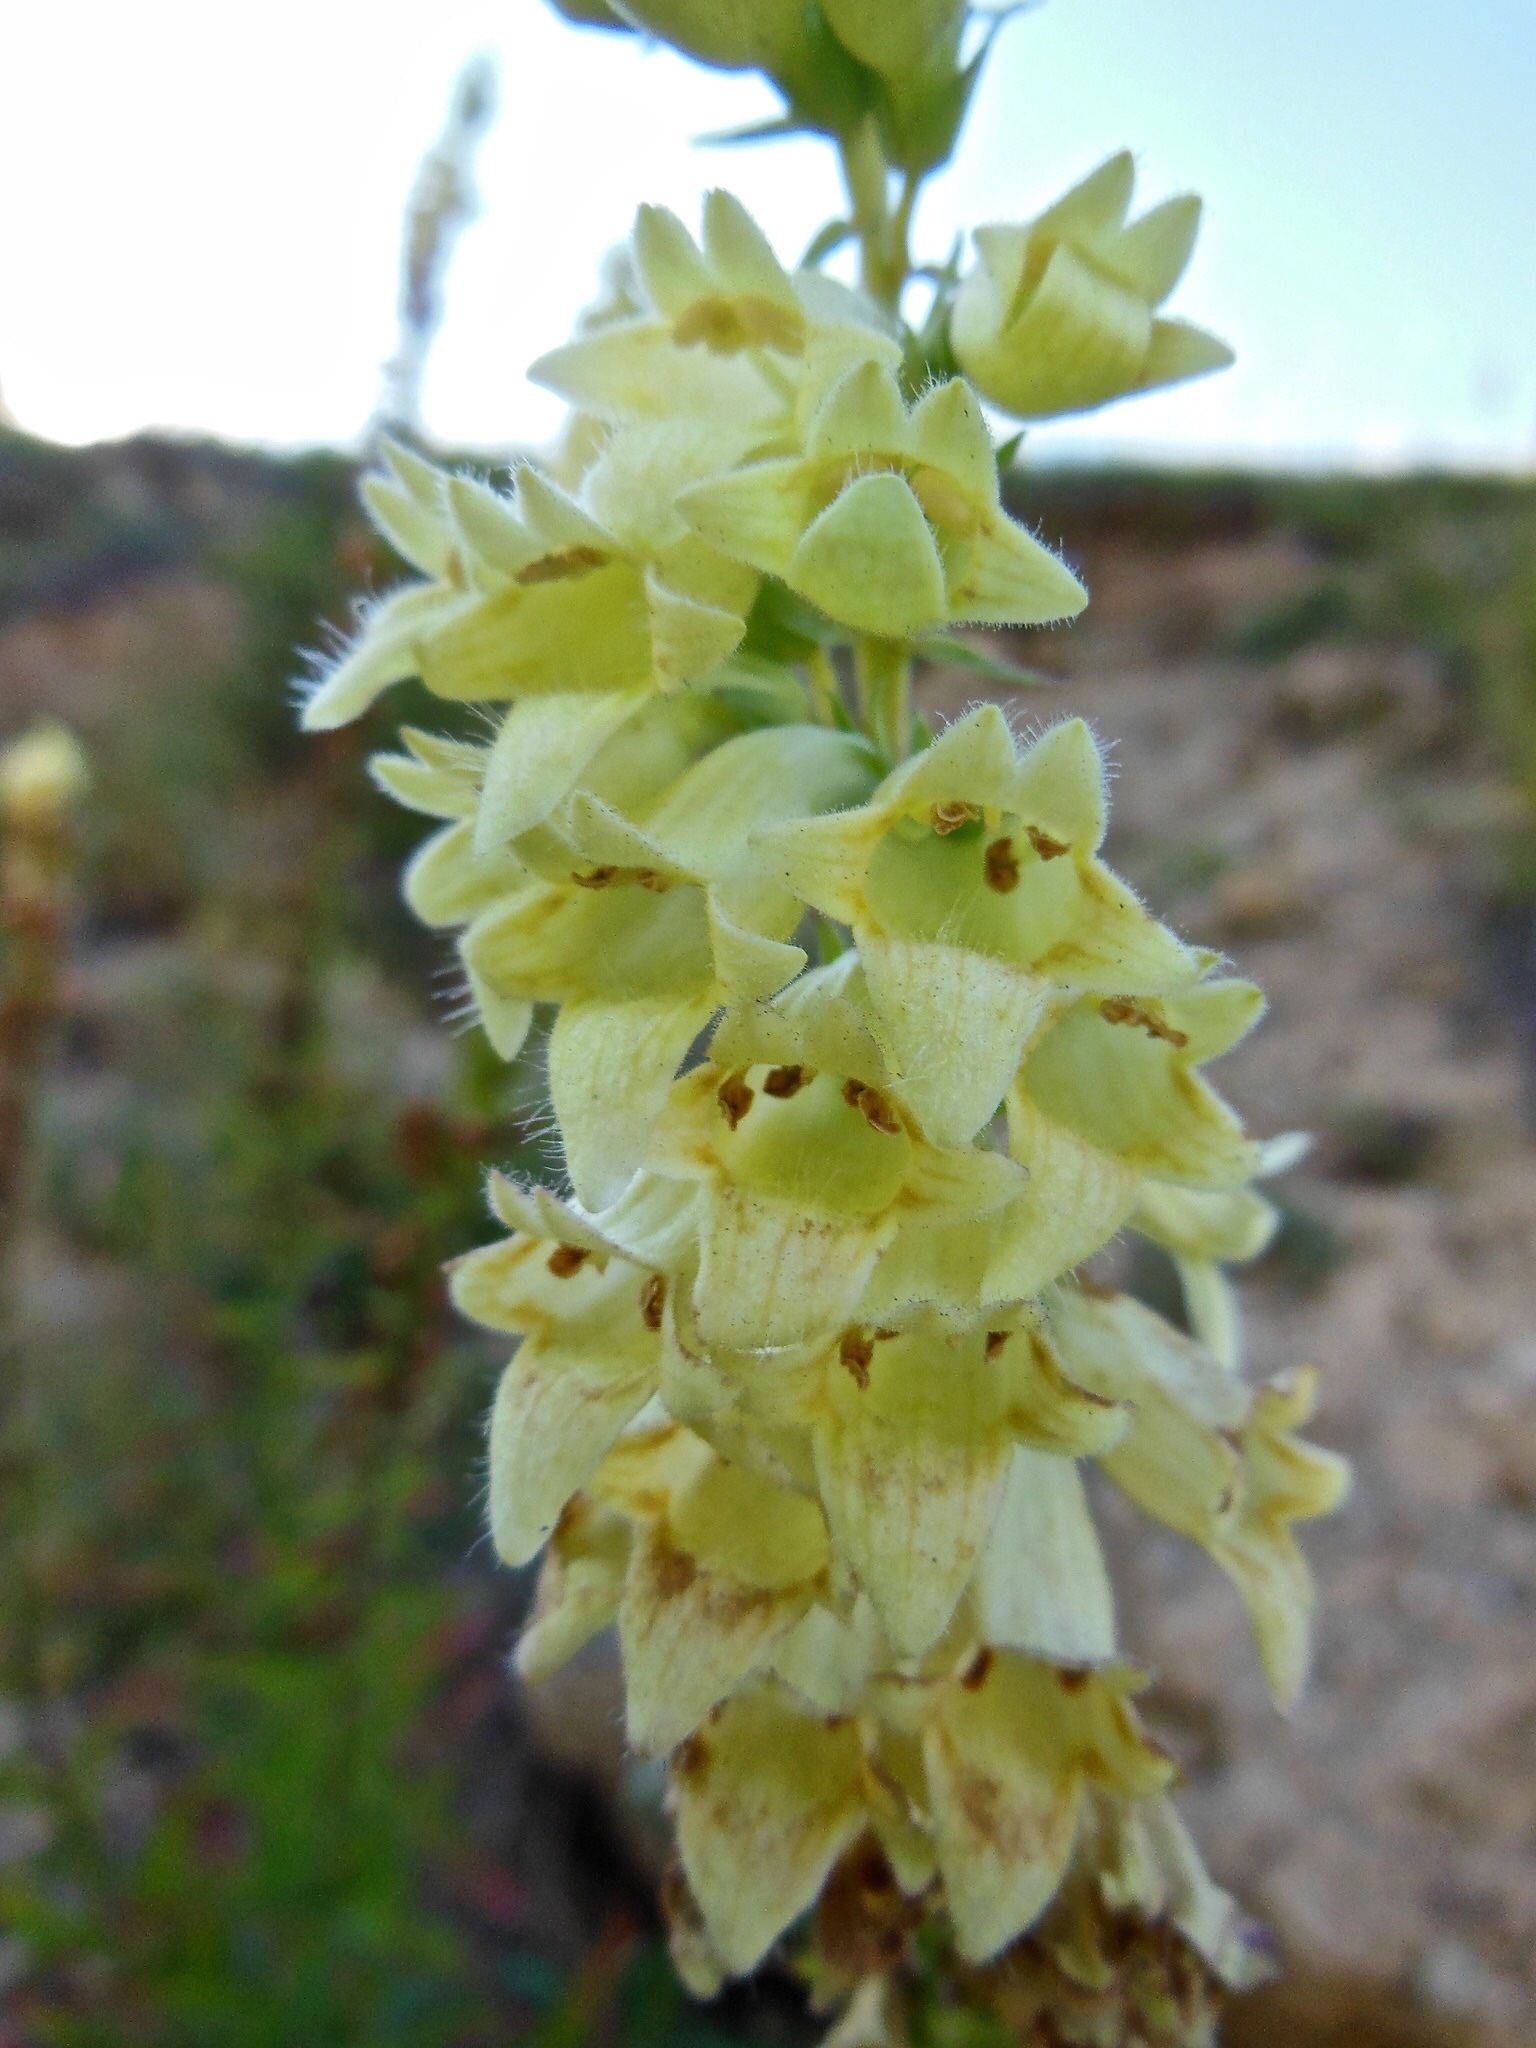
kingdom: Plantae
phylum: Tracheophyta
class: Magnoliopsida
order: Lamiales
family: Plantaginaceae
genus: Digitalis
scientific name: Digitalis lutea
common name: Straw foxglove
